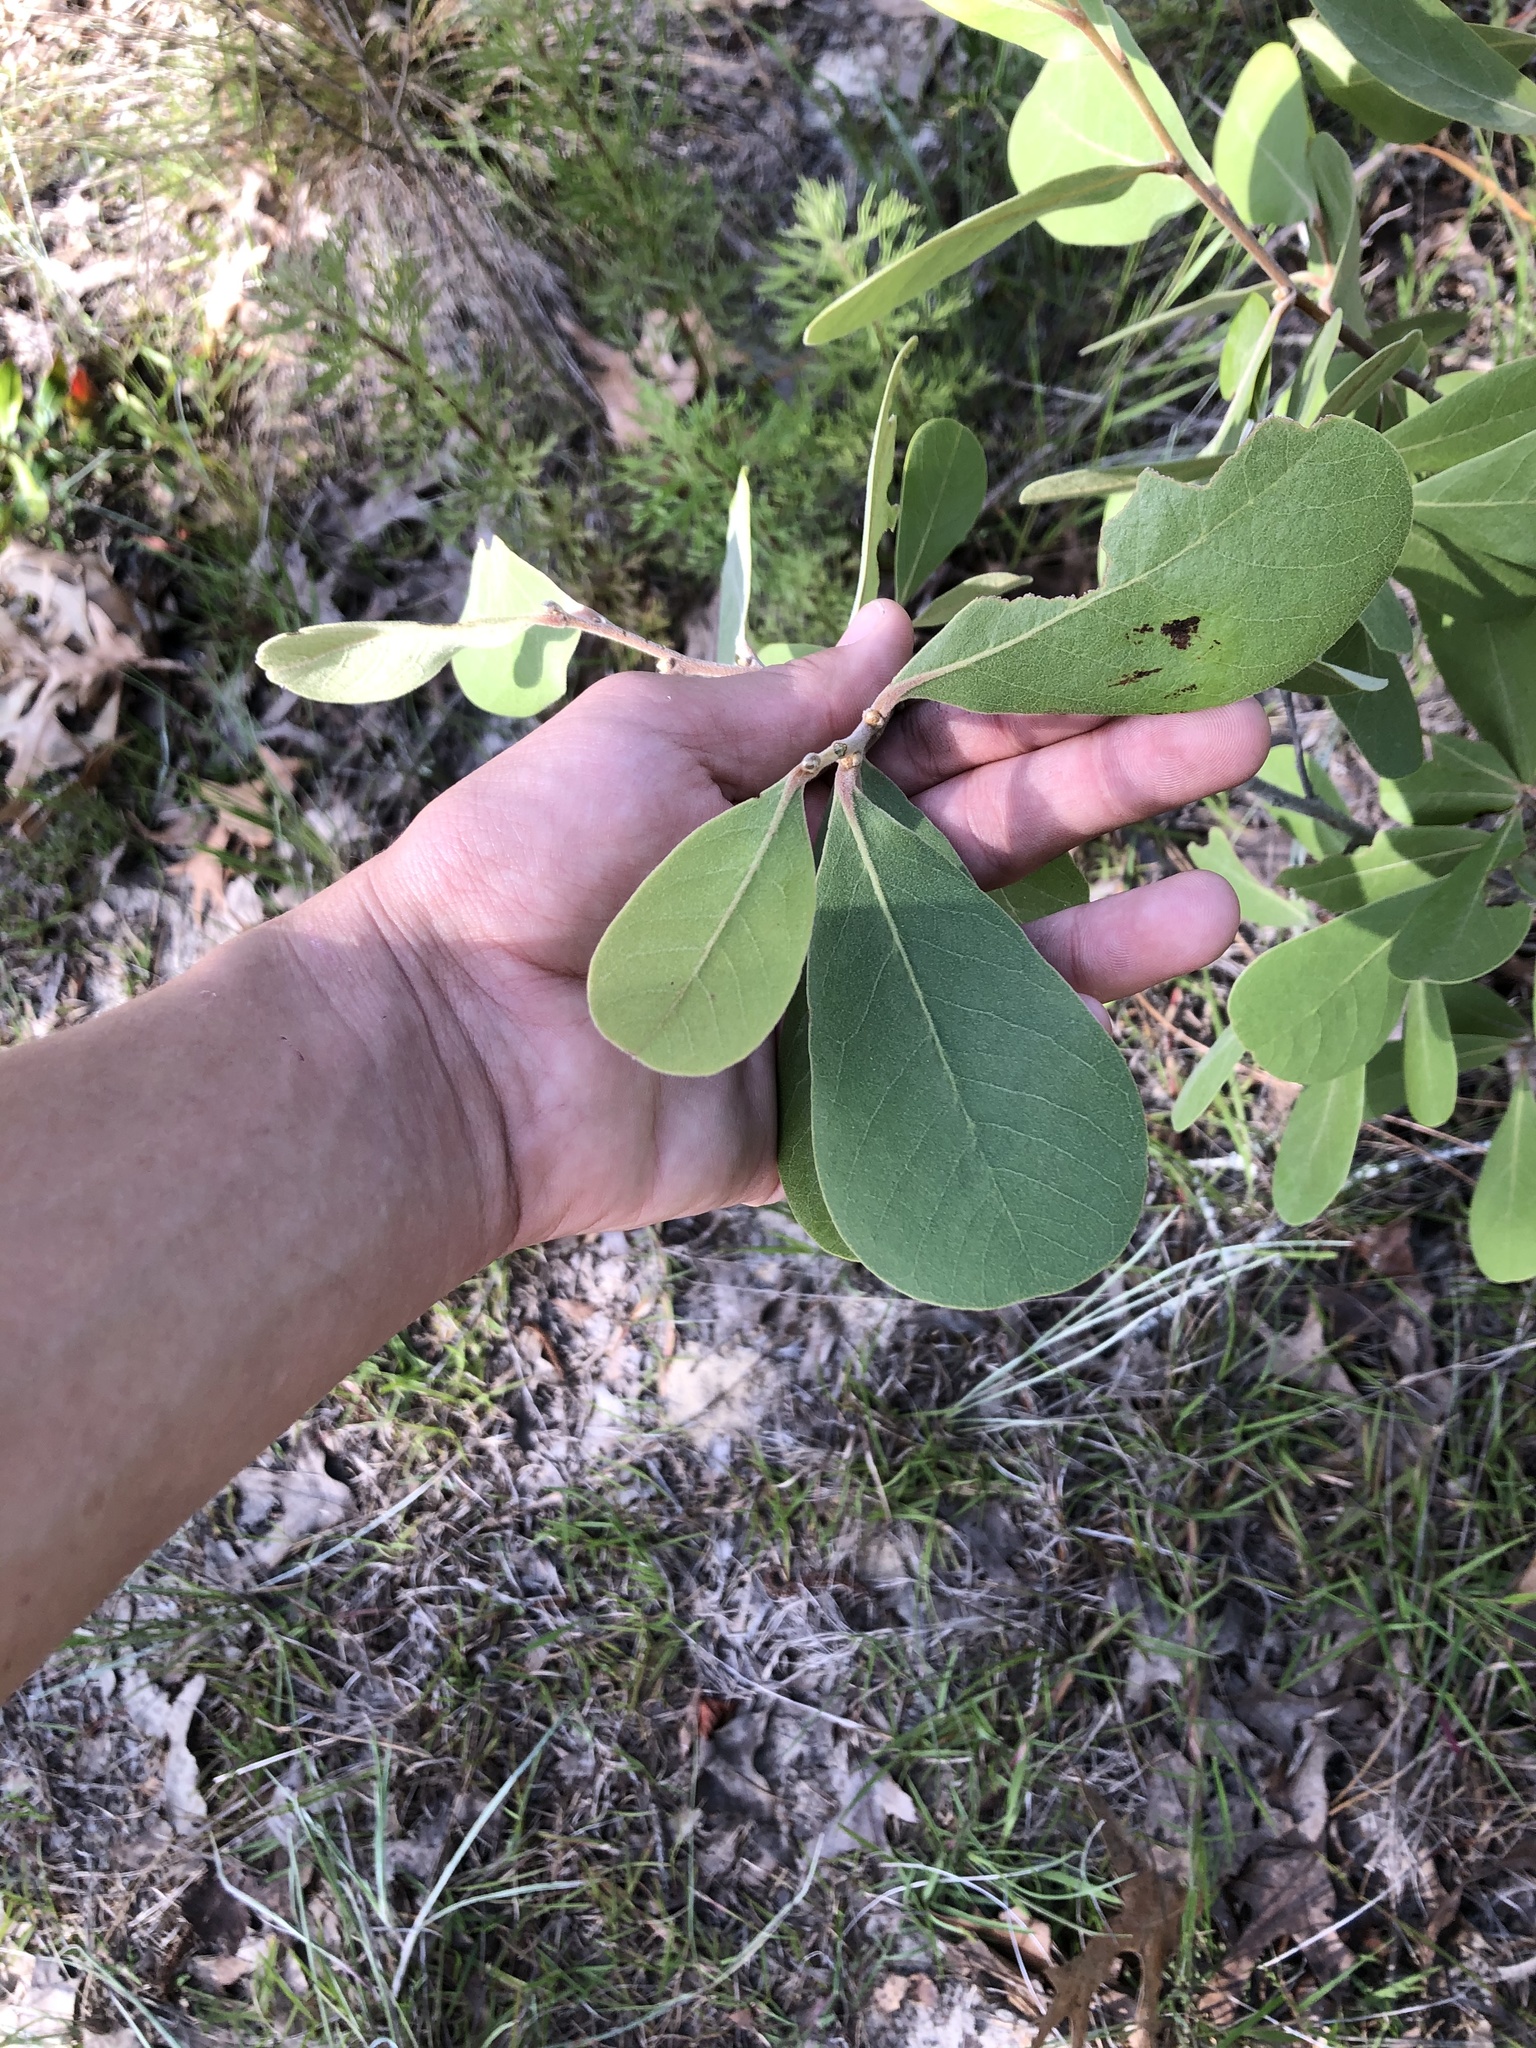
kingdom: Plantae
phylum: Tracheophyta
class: Magnoliopsida
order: Magnoliales
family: Annonaceae
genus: Asimina
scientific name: Asimina speciosa
